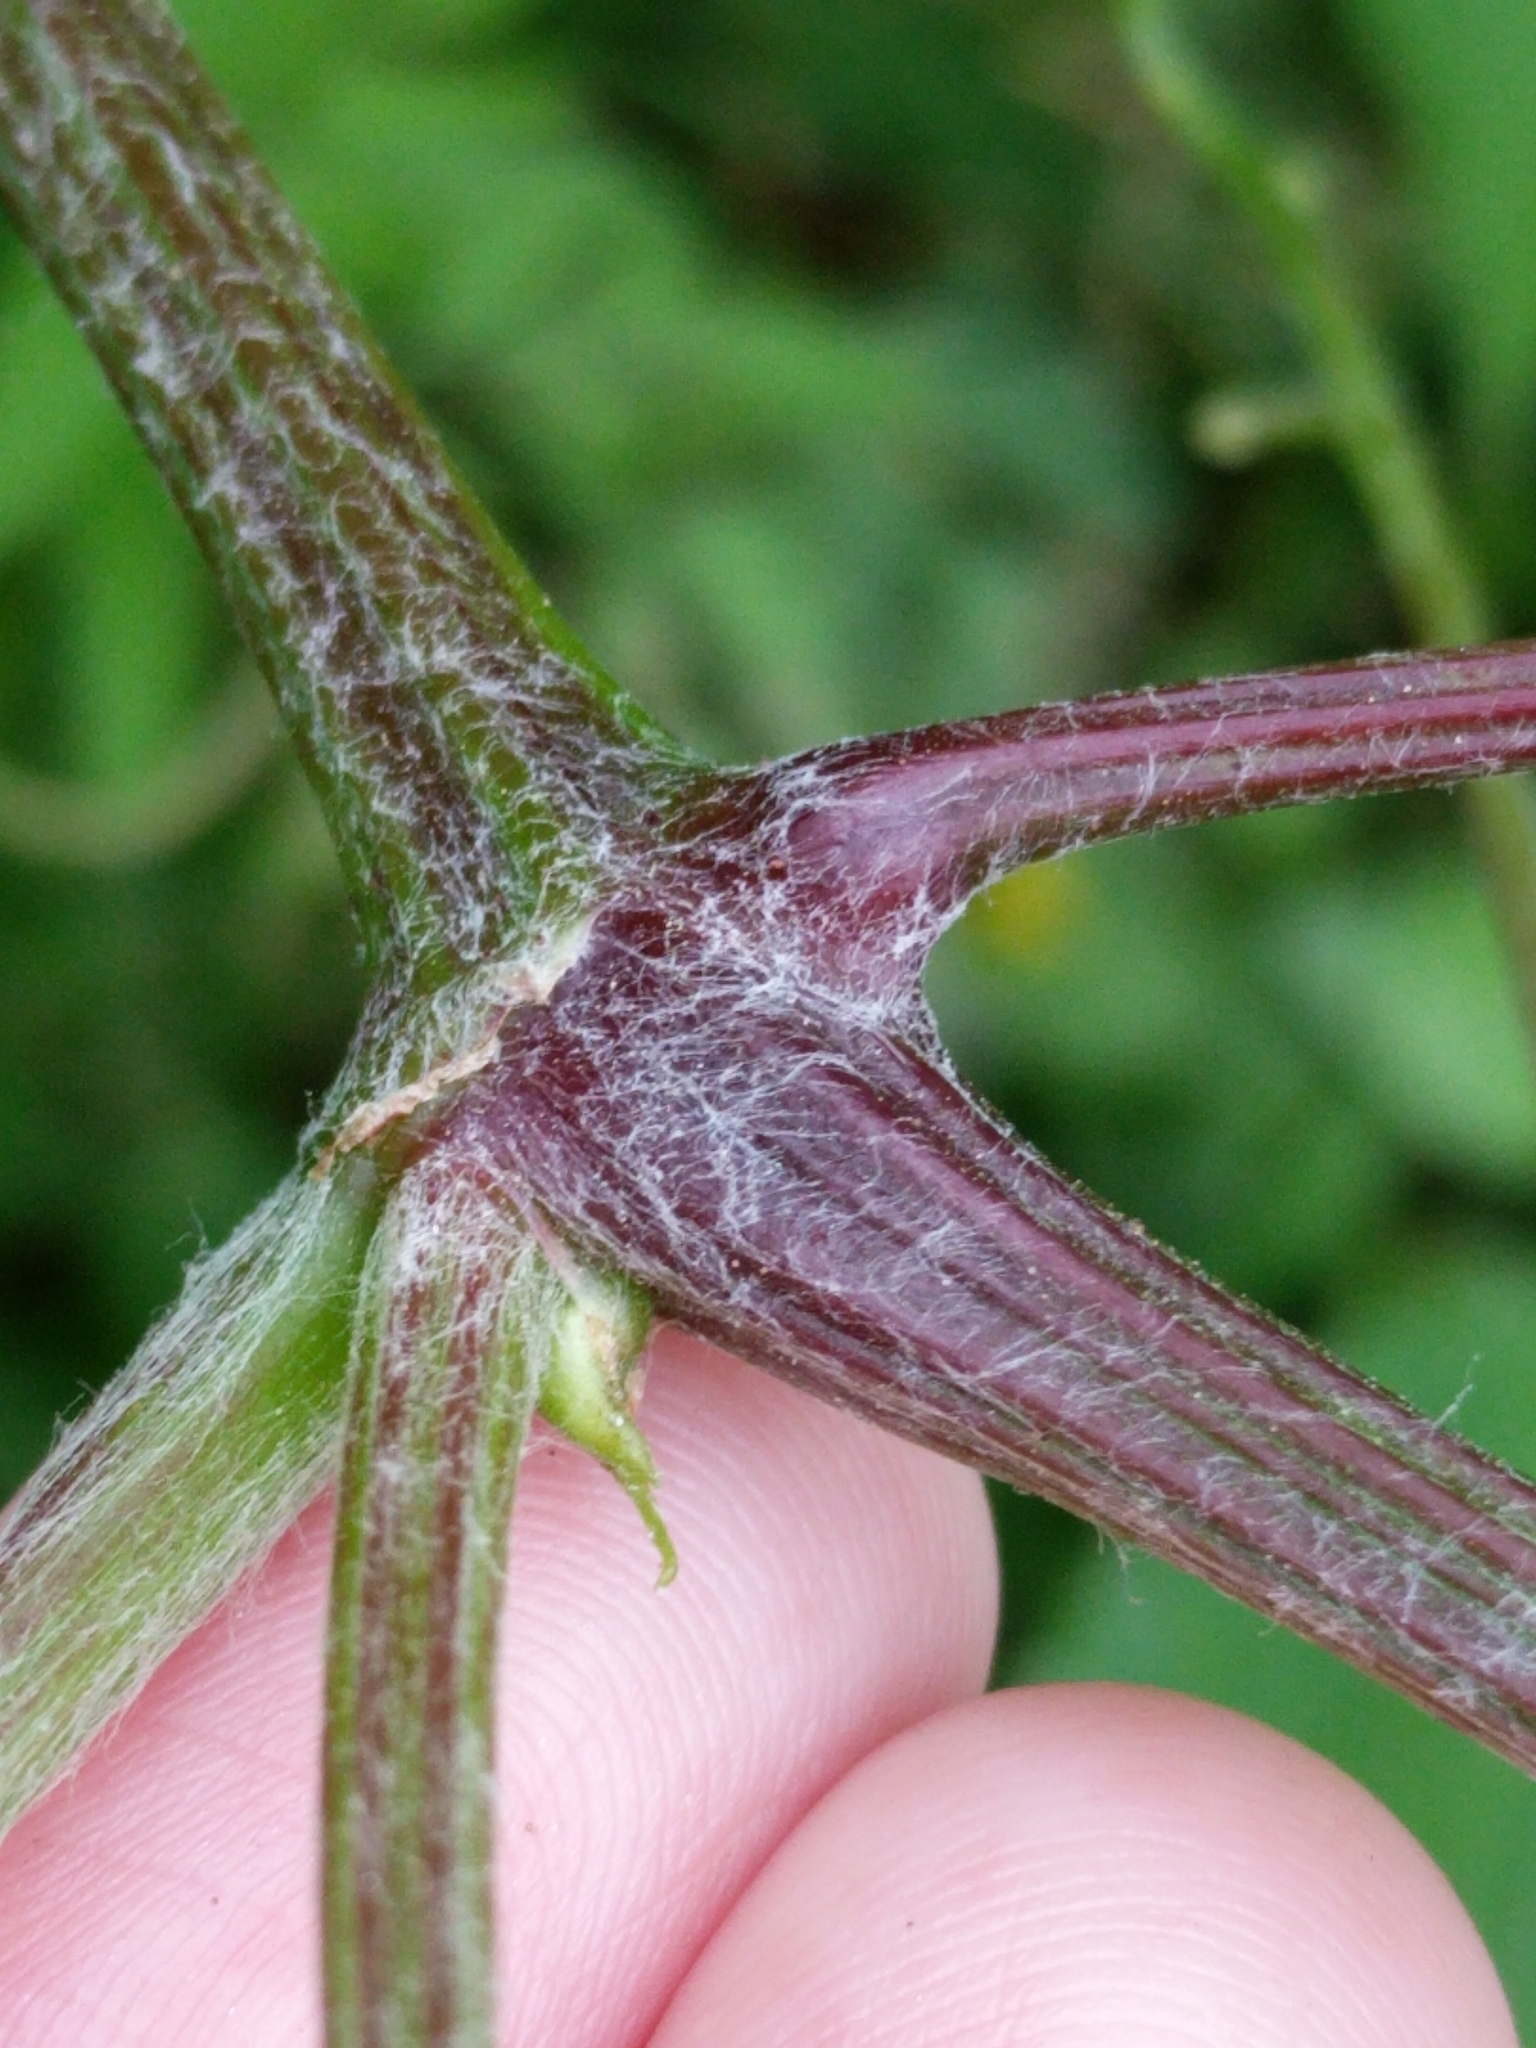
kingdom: Plantae
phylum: Tracheophyta
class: Magnoliopsida
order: Vitales
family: Vitaceae
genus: Vitis
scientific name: Vitis cinerea
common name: Ashy grape
